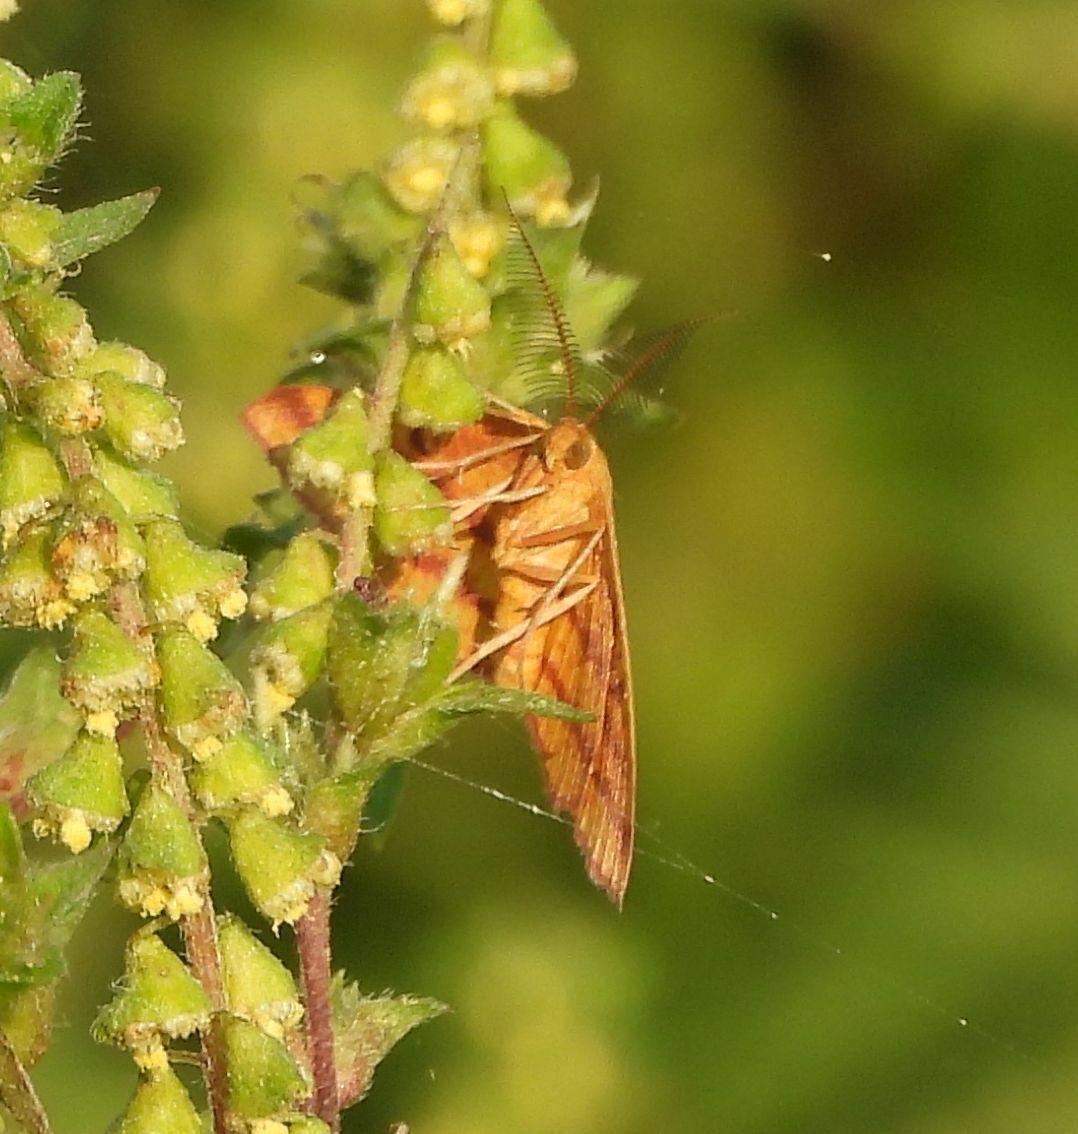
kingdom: Animalia
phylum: Arthropoda
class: Insecta
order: Lepidoptera
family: Geometridae
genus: Haematopis
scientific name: Haematopis grataria
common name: Chickweed geometer
